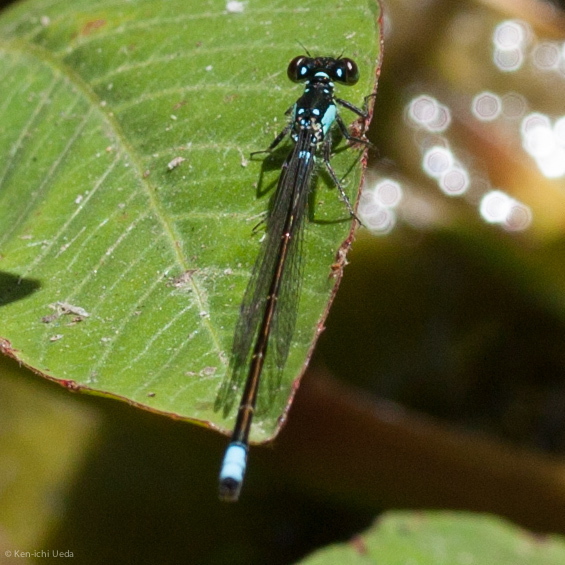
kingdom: Animalia
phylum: Arthropoda
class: Insecta
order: Odonata
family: Coenagrionidae
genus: Ischnura
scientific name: Ischnura cervula
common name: Pacific forktail
